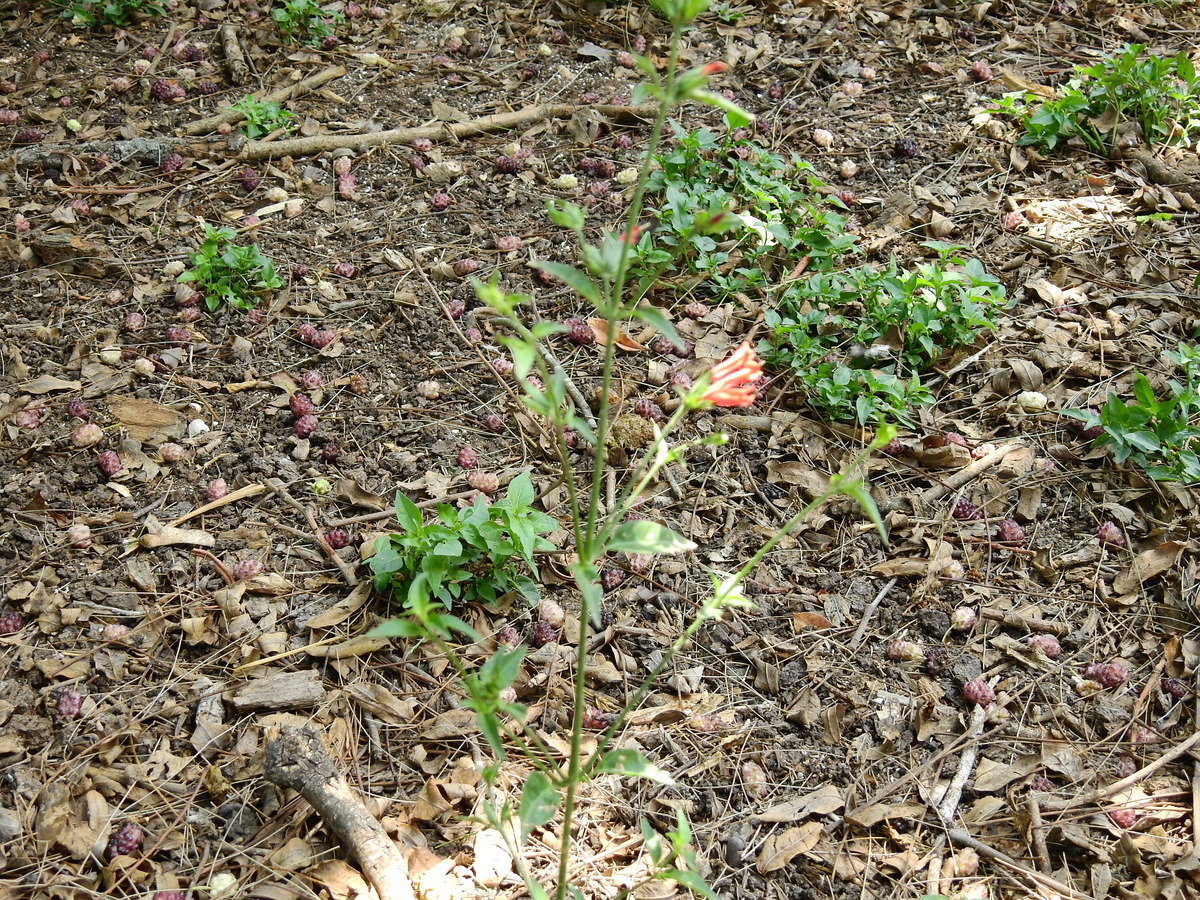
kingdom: Plantae
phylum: Tracheophyta
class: Magnoliopsida
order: Lamiales
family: Acanthaceae
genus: Dicliptera
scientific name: Dicliptera squarrosa
